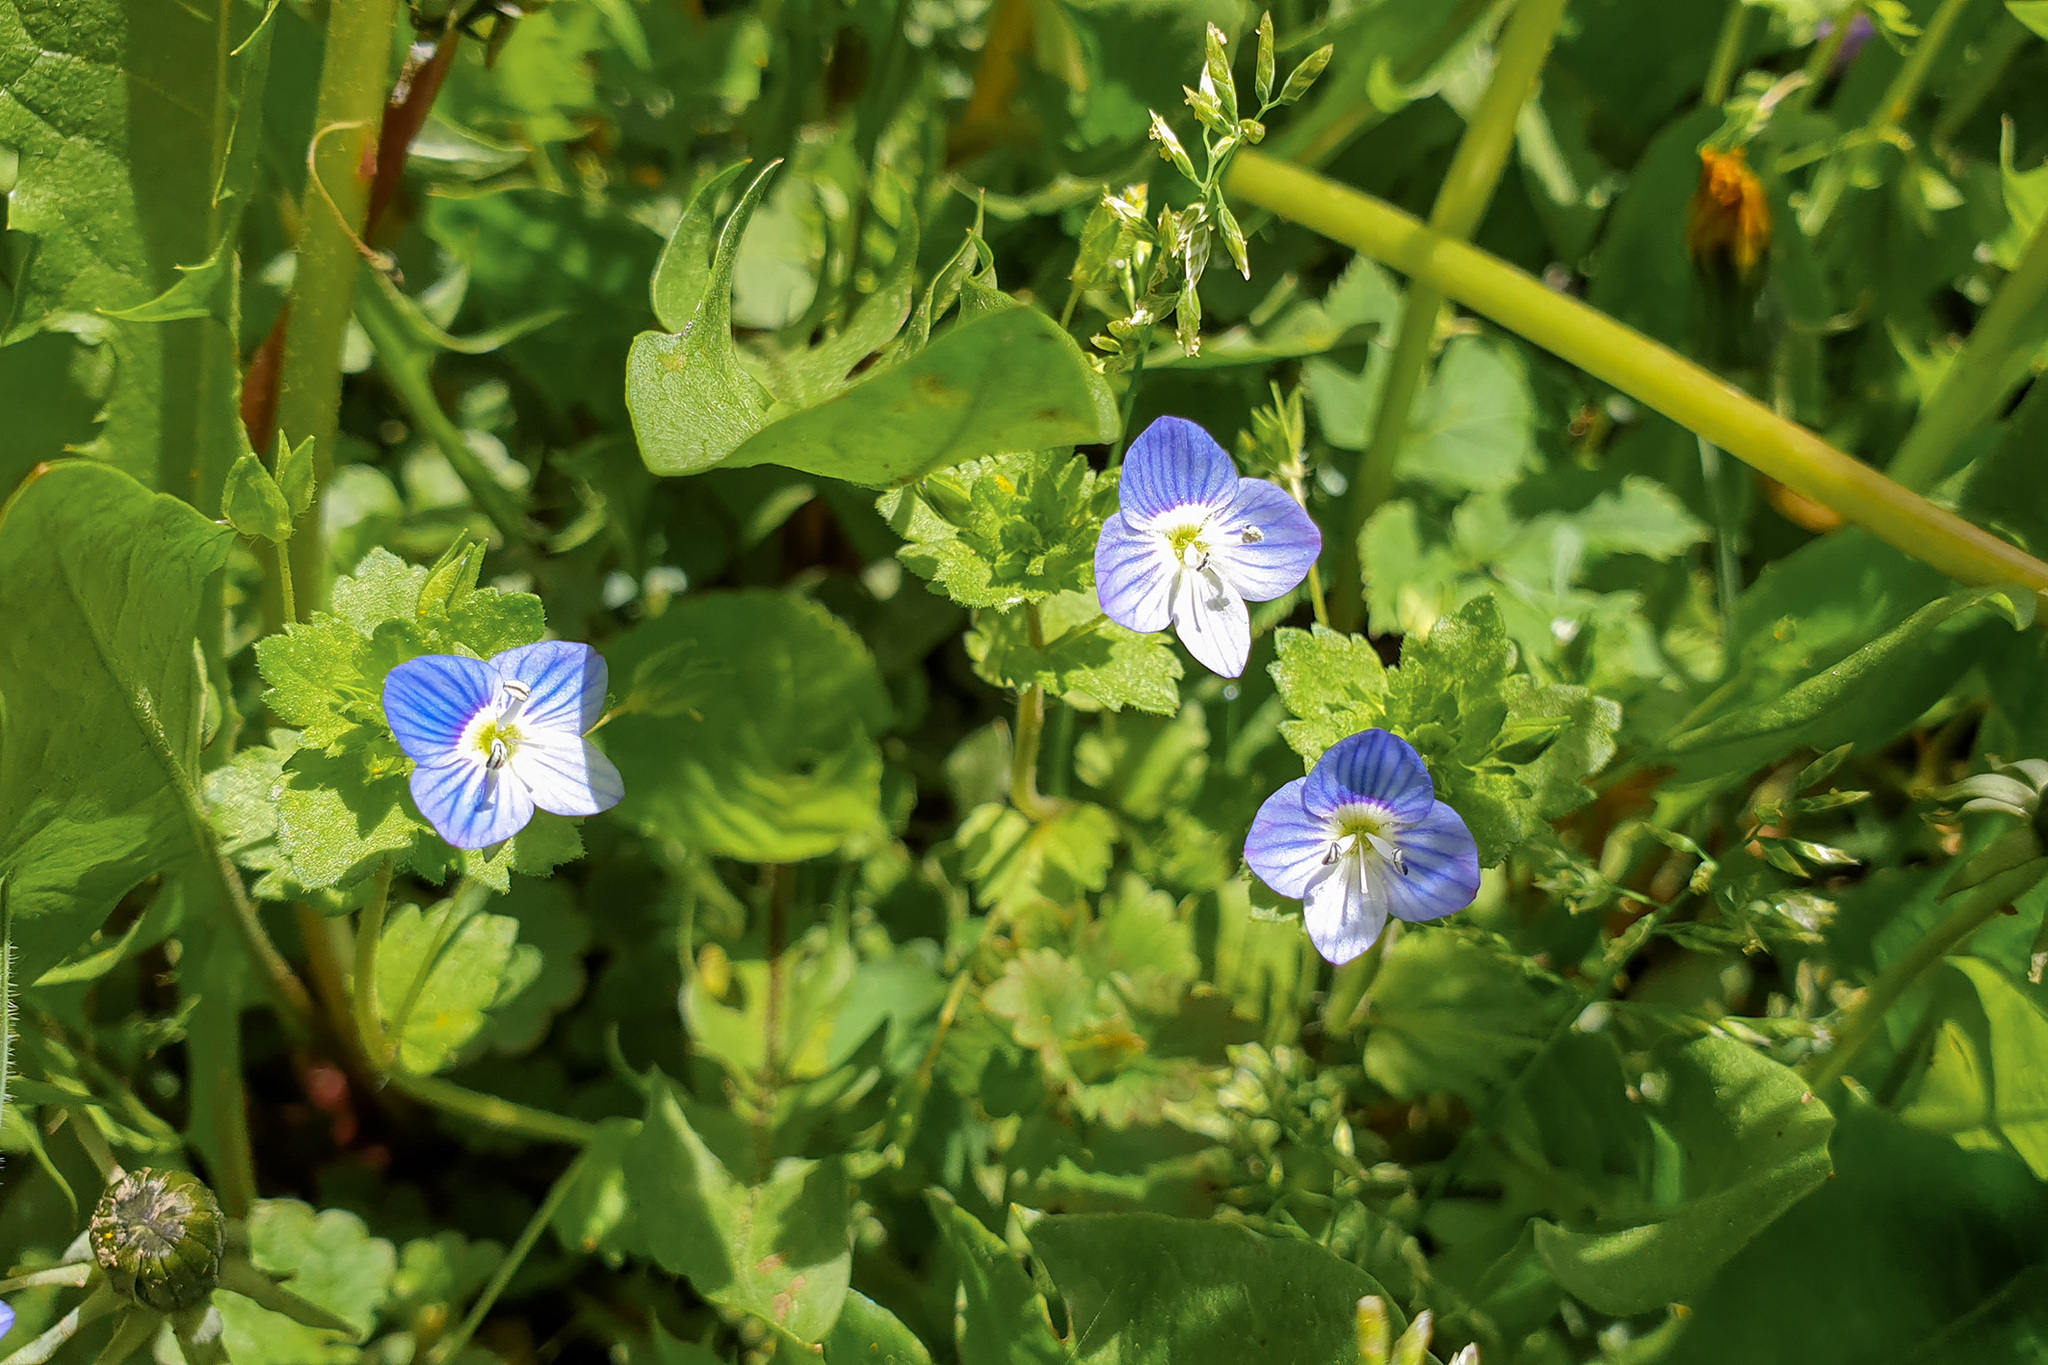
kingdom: Plantae
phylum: Tracheophyta
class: Magnoliopsida
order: Lamiales
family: Plantaginaceae
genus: Veronica
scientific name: Veronica persica
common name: Common field-speedwell
